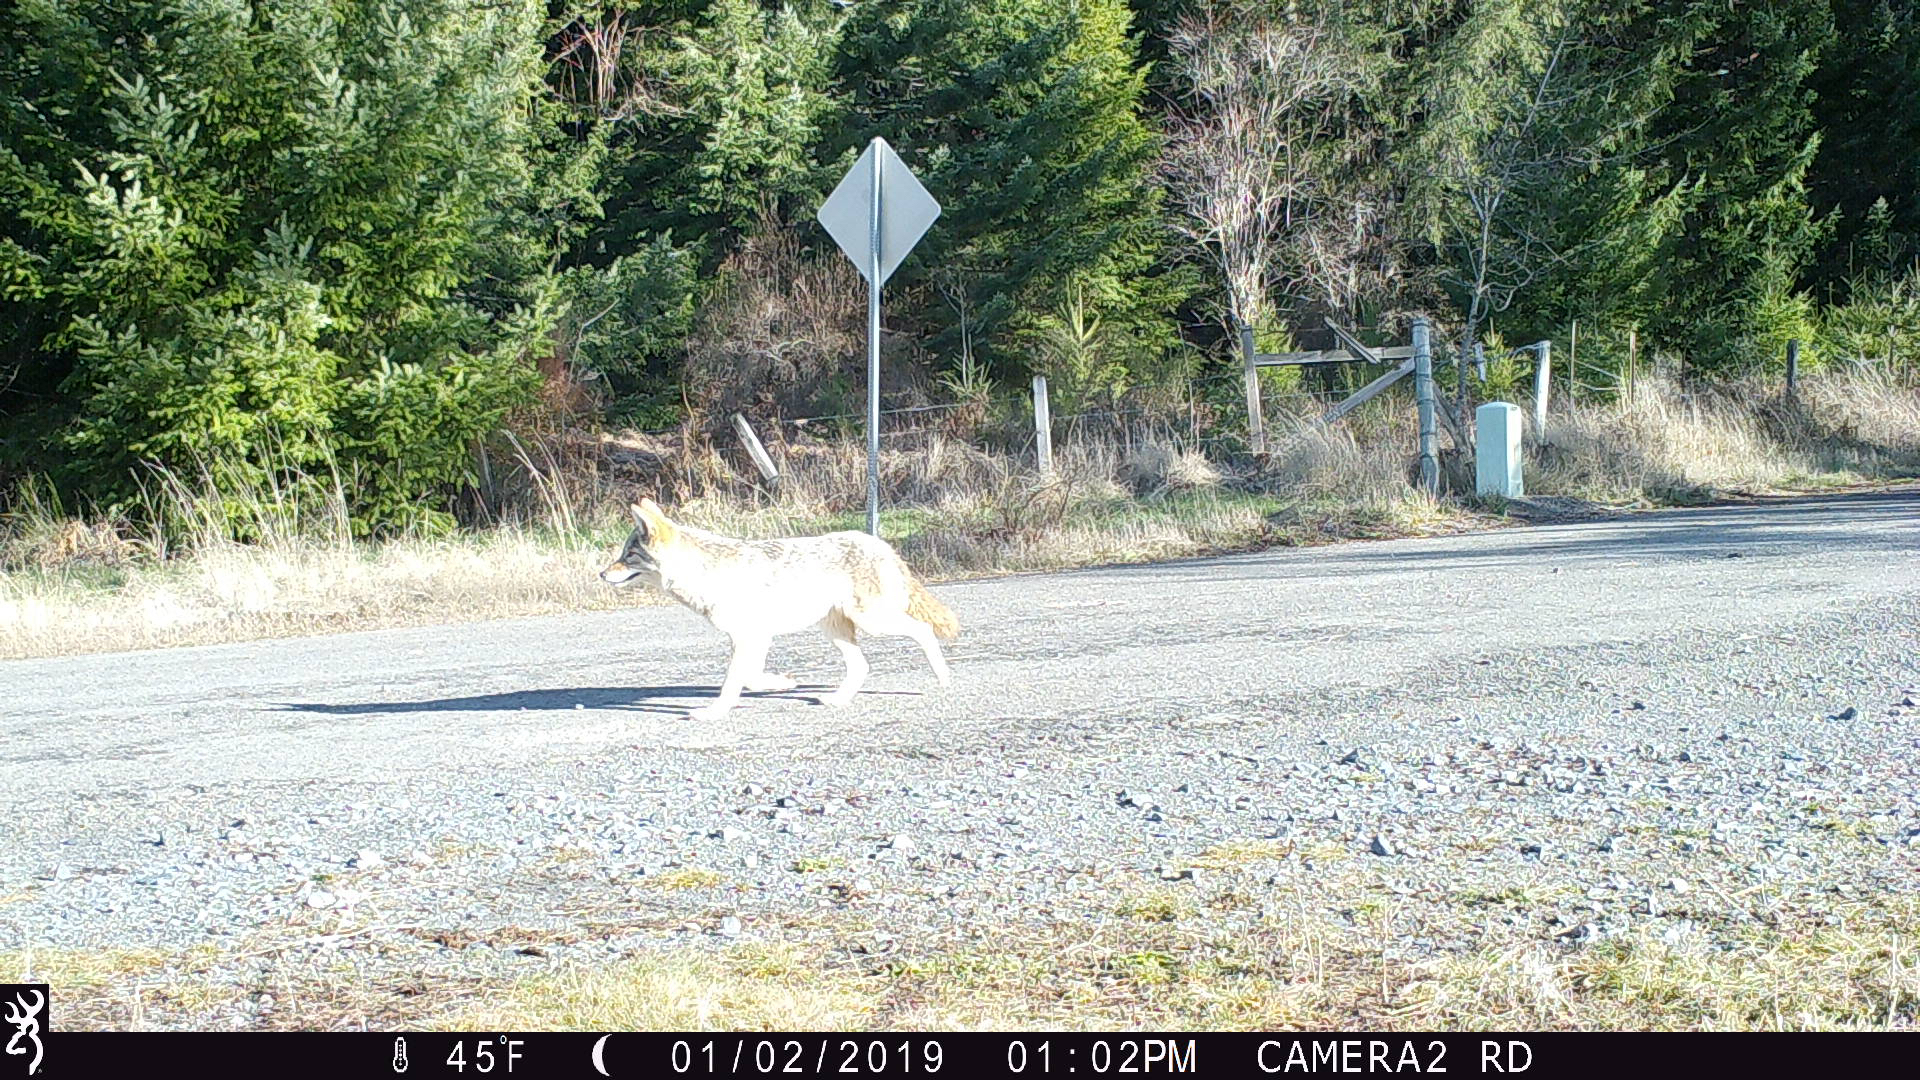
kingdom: Animalia
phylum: Chordata
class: Mammalia
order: Carnivora
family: Canidae
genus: Canis
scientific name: Canis latrans
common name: Coyote
